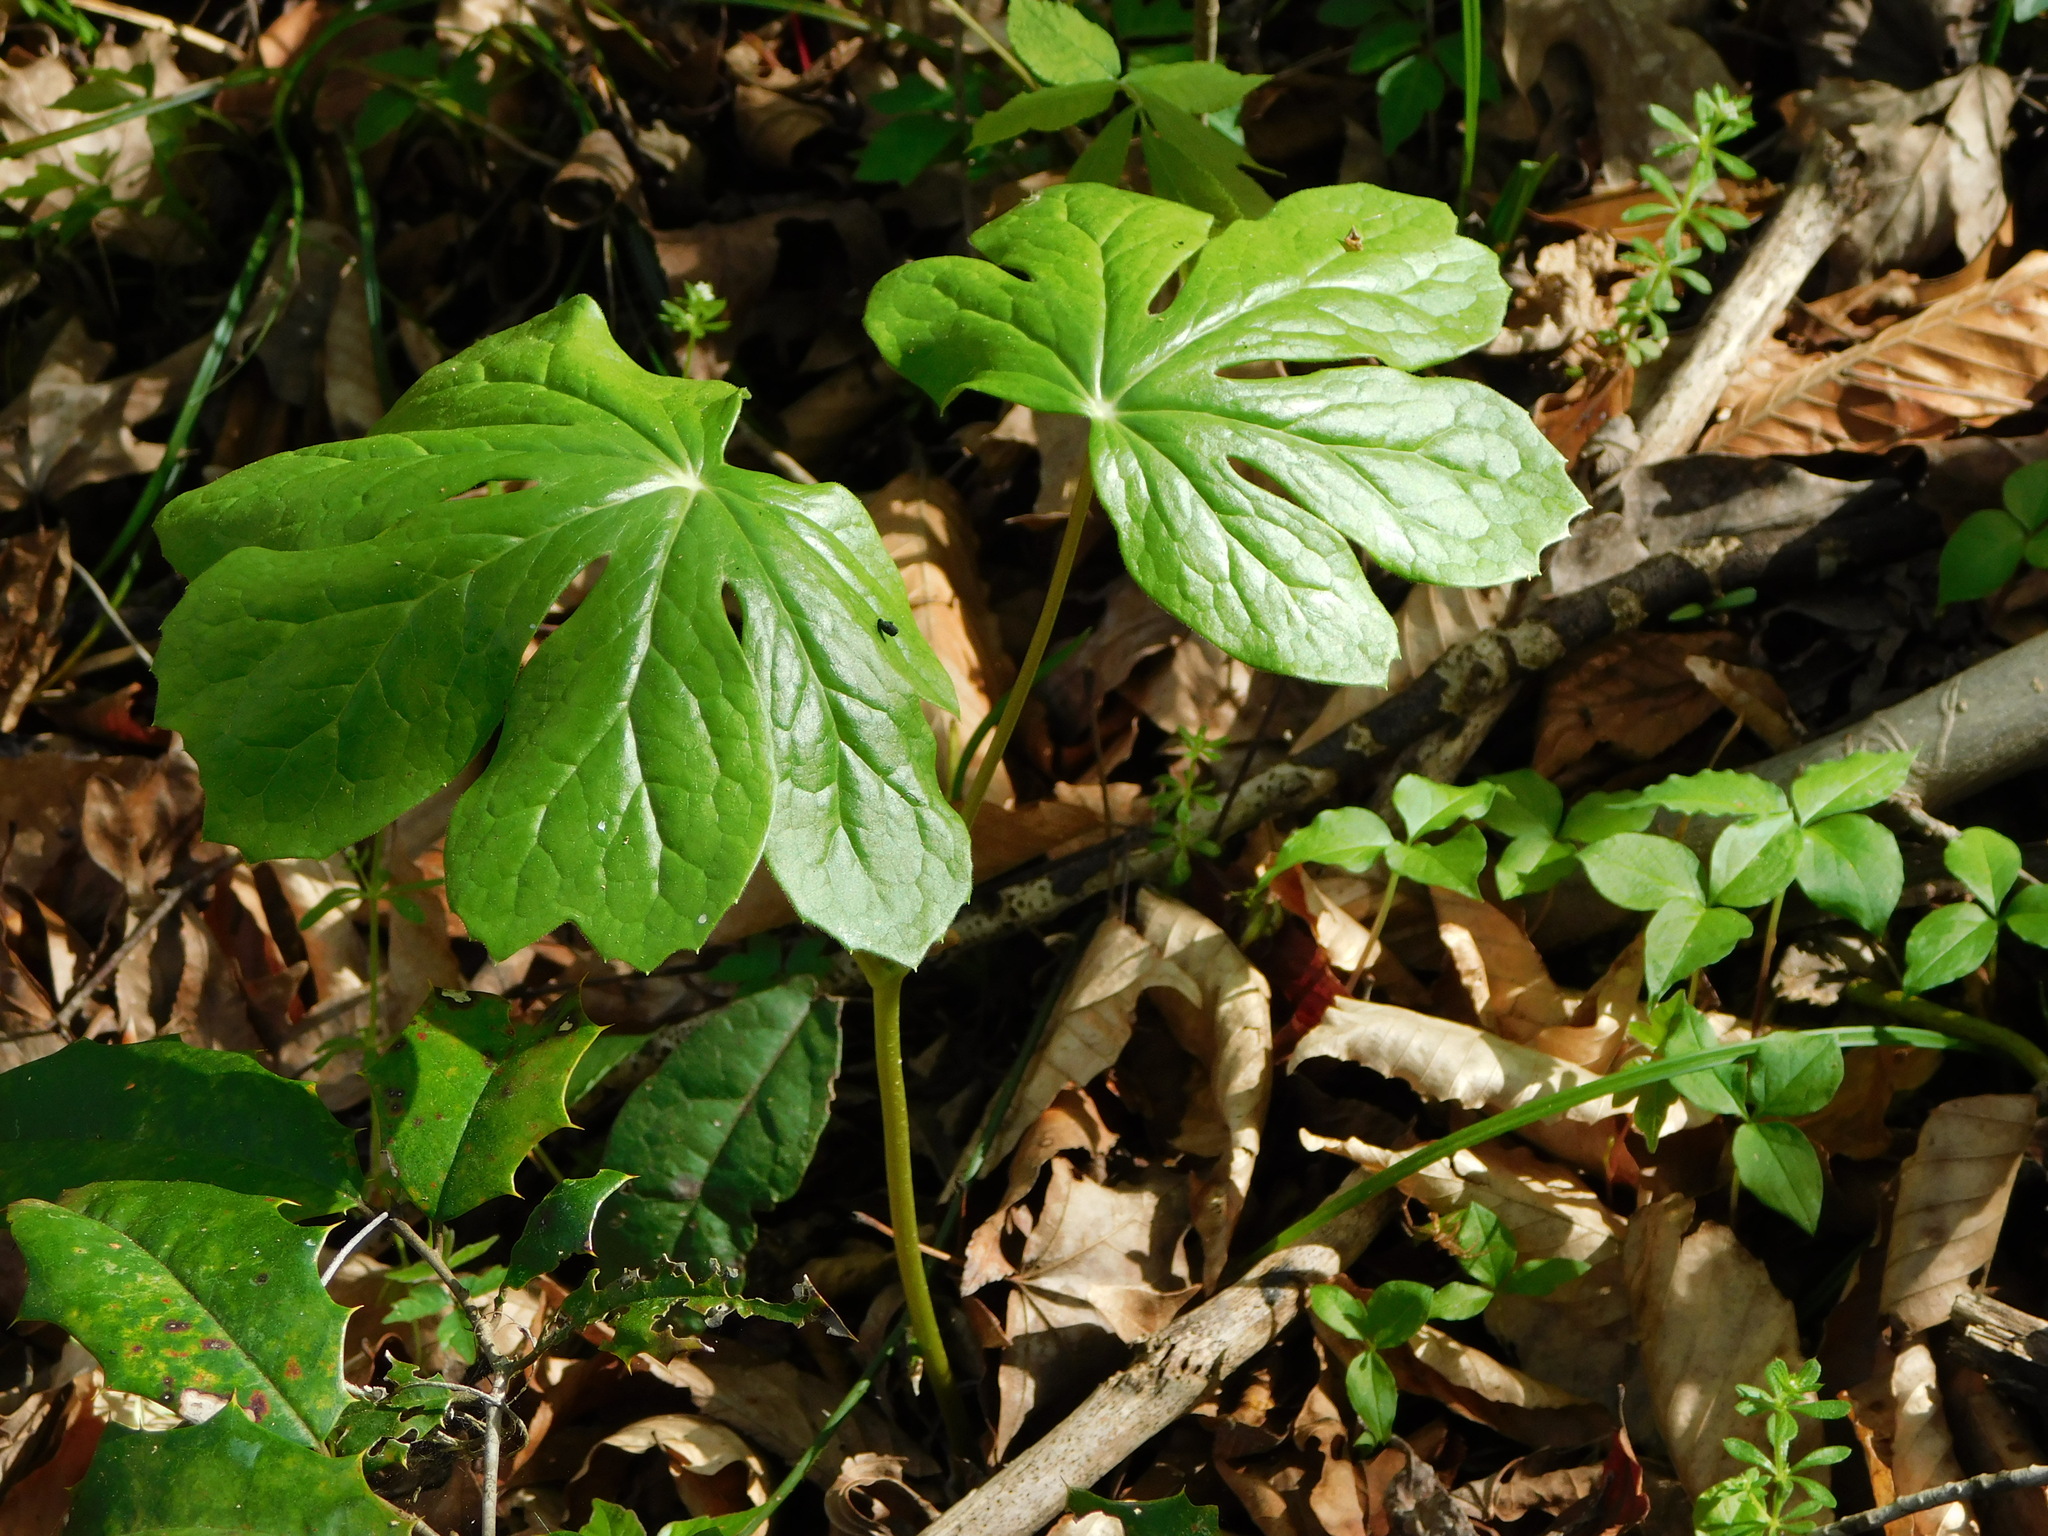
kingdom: Plantae
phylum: Tracheophyta
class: Magnoliopsida
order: Ranunculales
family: Berberidaceae
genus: Podophyllum
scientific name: Podophyllum peltatum
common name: Wild mandrake
